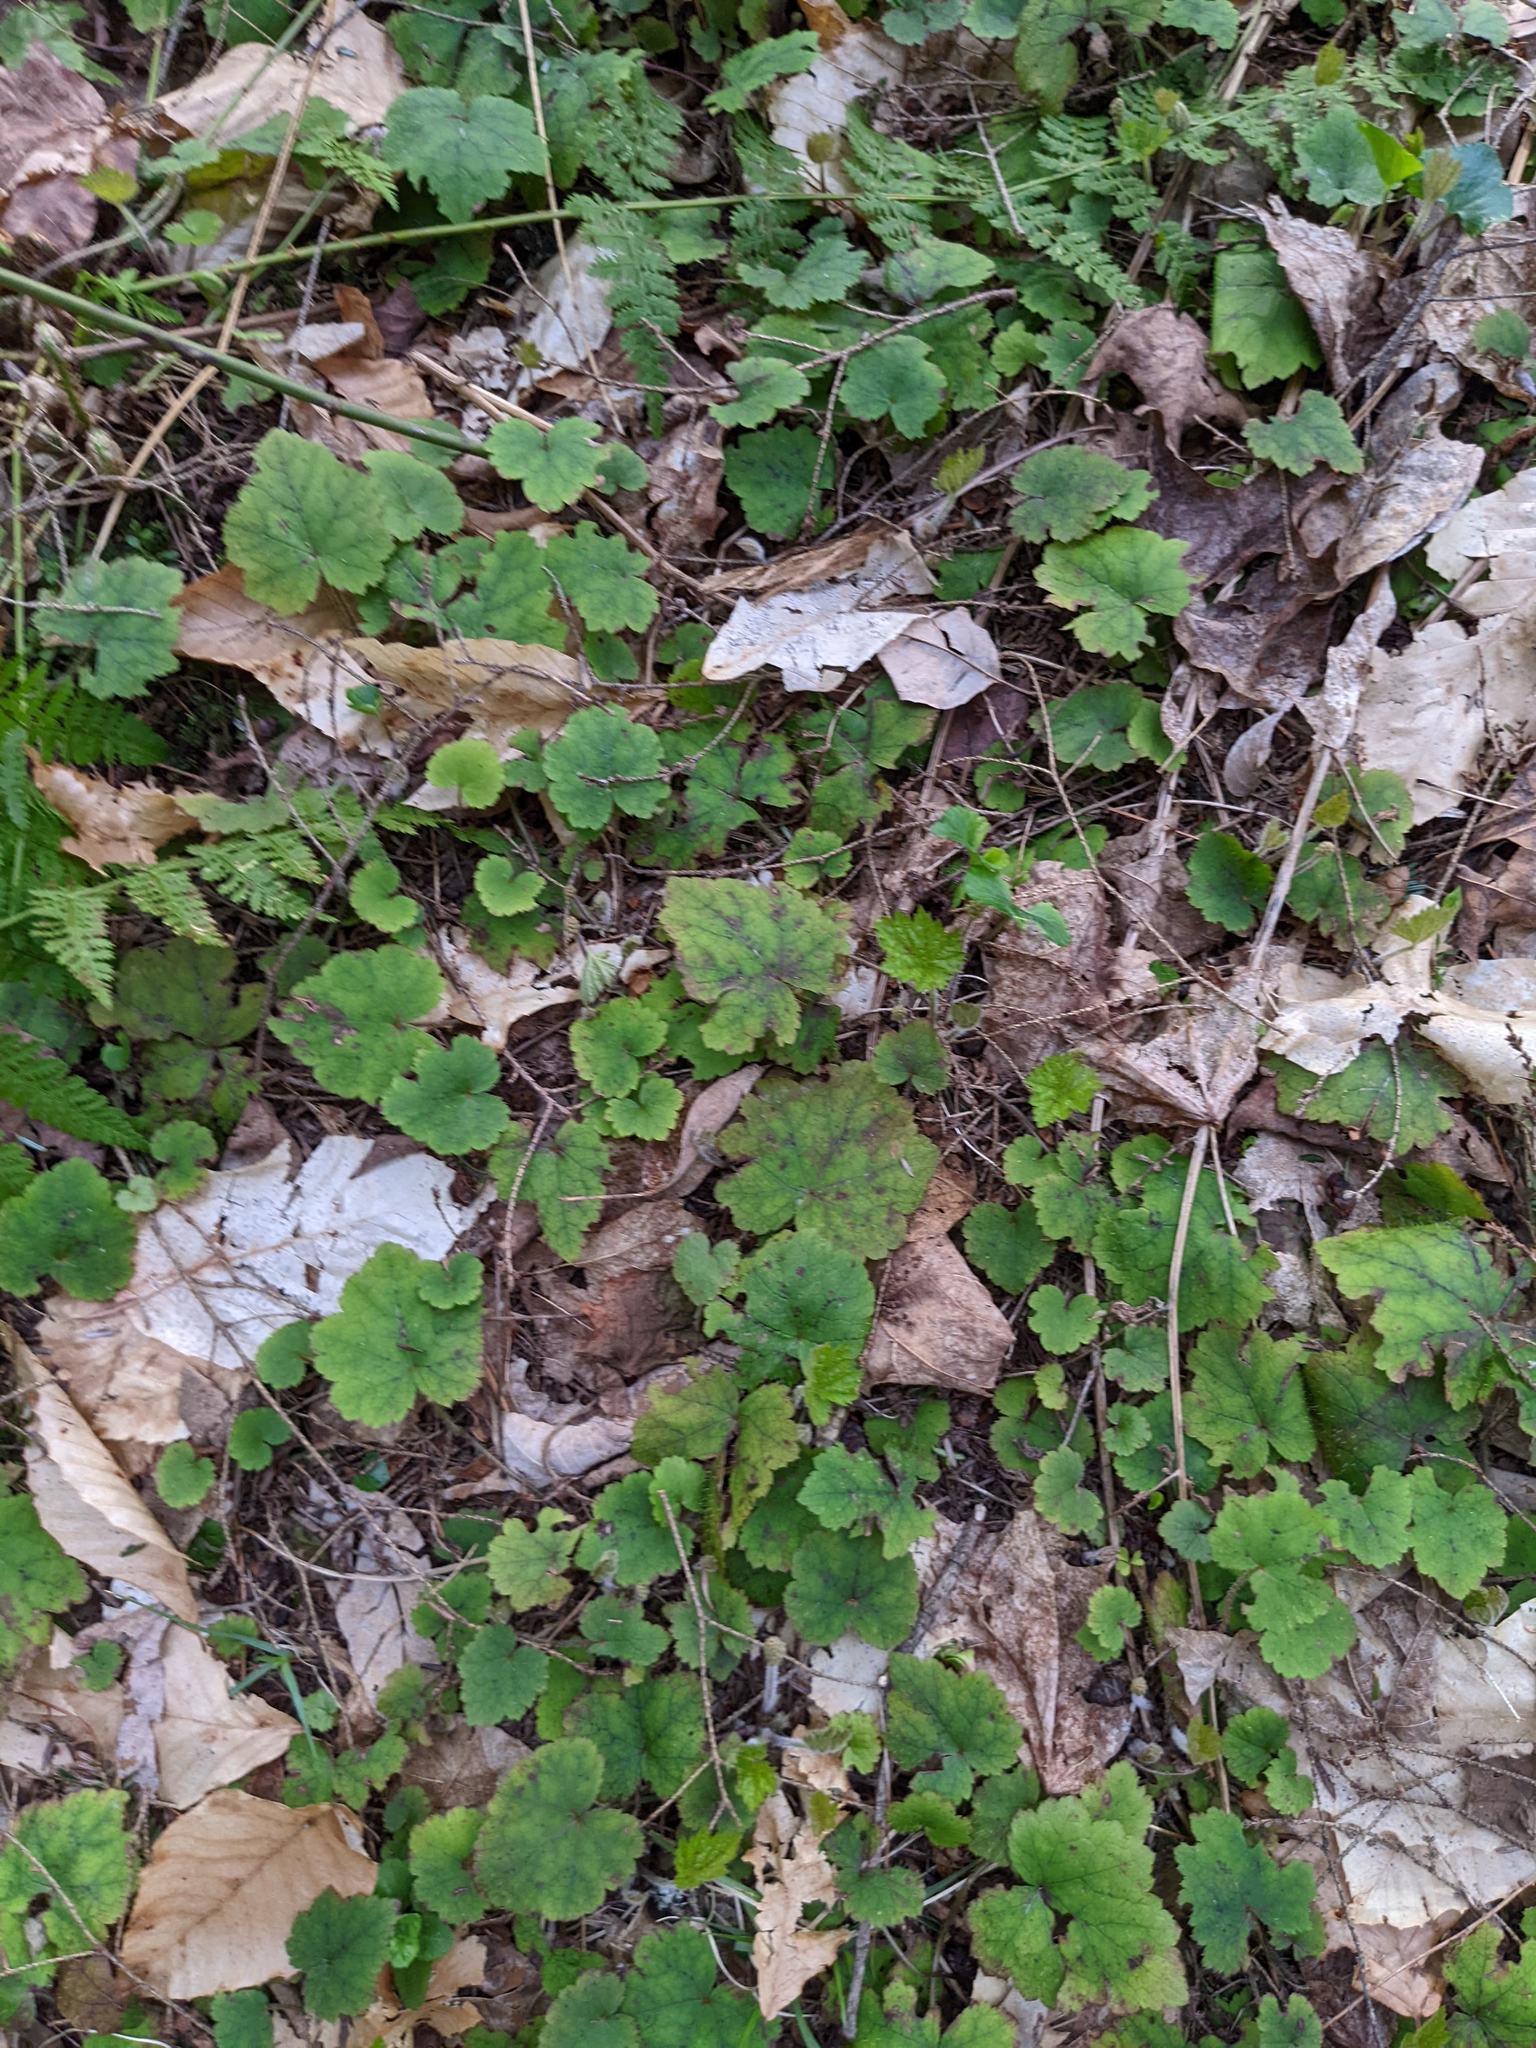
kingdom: Plantae
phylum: Tracheophyta
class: Magnoliopsida
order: Saxifragales
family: Saxifragaceae
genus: Tiarella
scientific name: Tiarella stolonifera
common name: Stoloniferous foamflower
